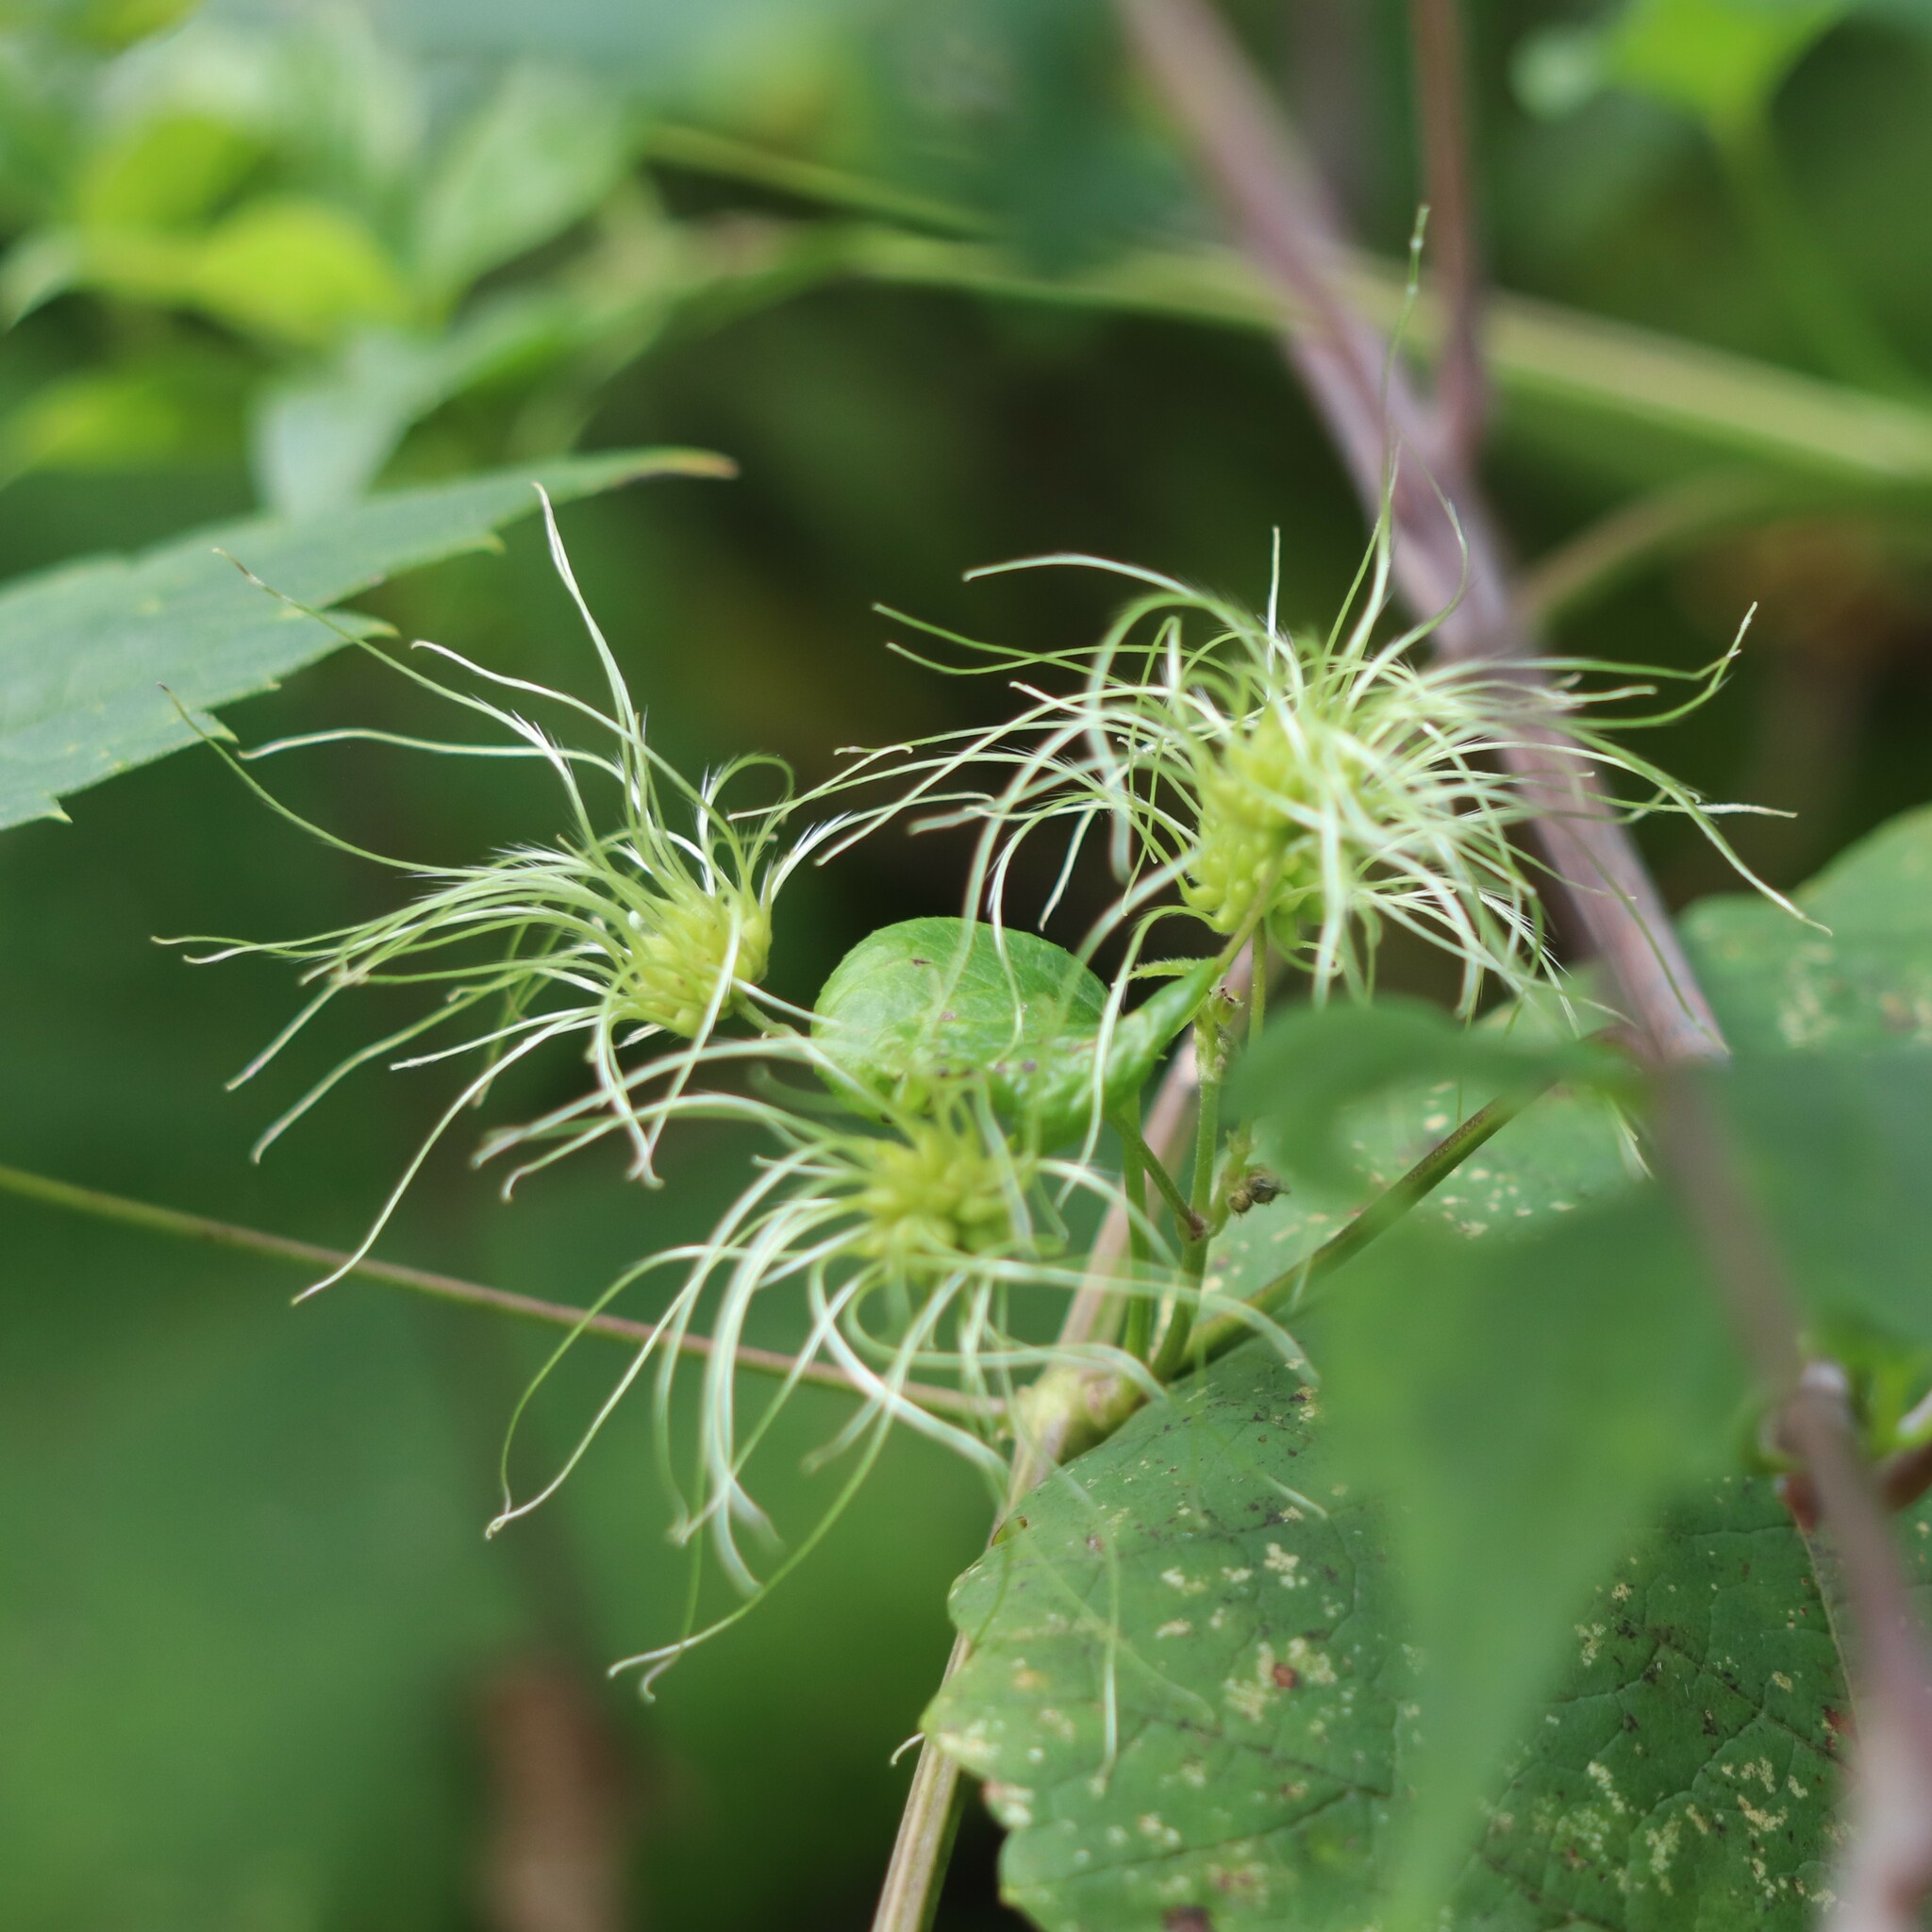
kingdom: Plantae
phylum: Tracheophyta
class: Magnoliopsida
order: Ranunculales
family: Ranunculaceae
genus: Clematis
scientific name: Clematis virginiana
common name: Virgin's-bower
